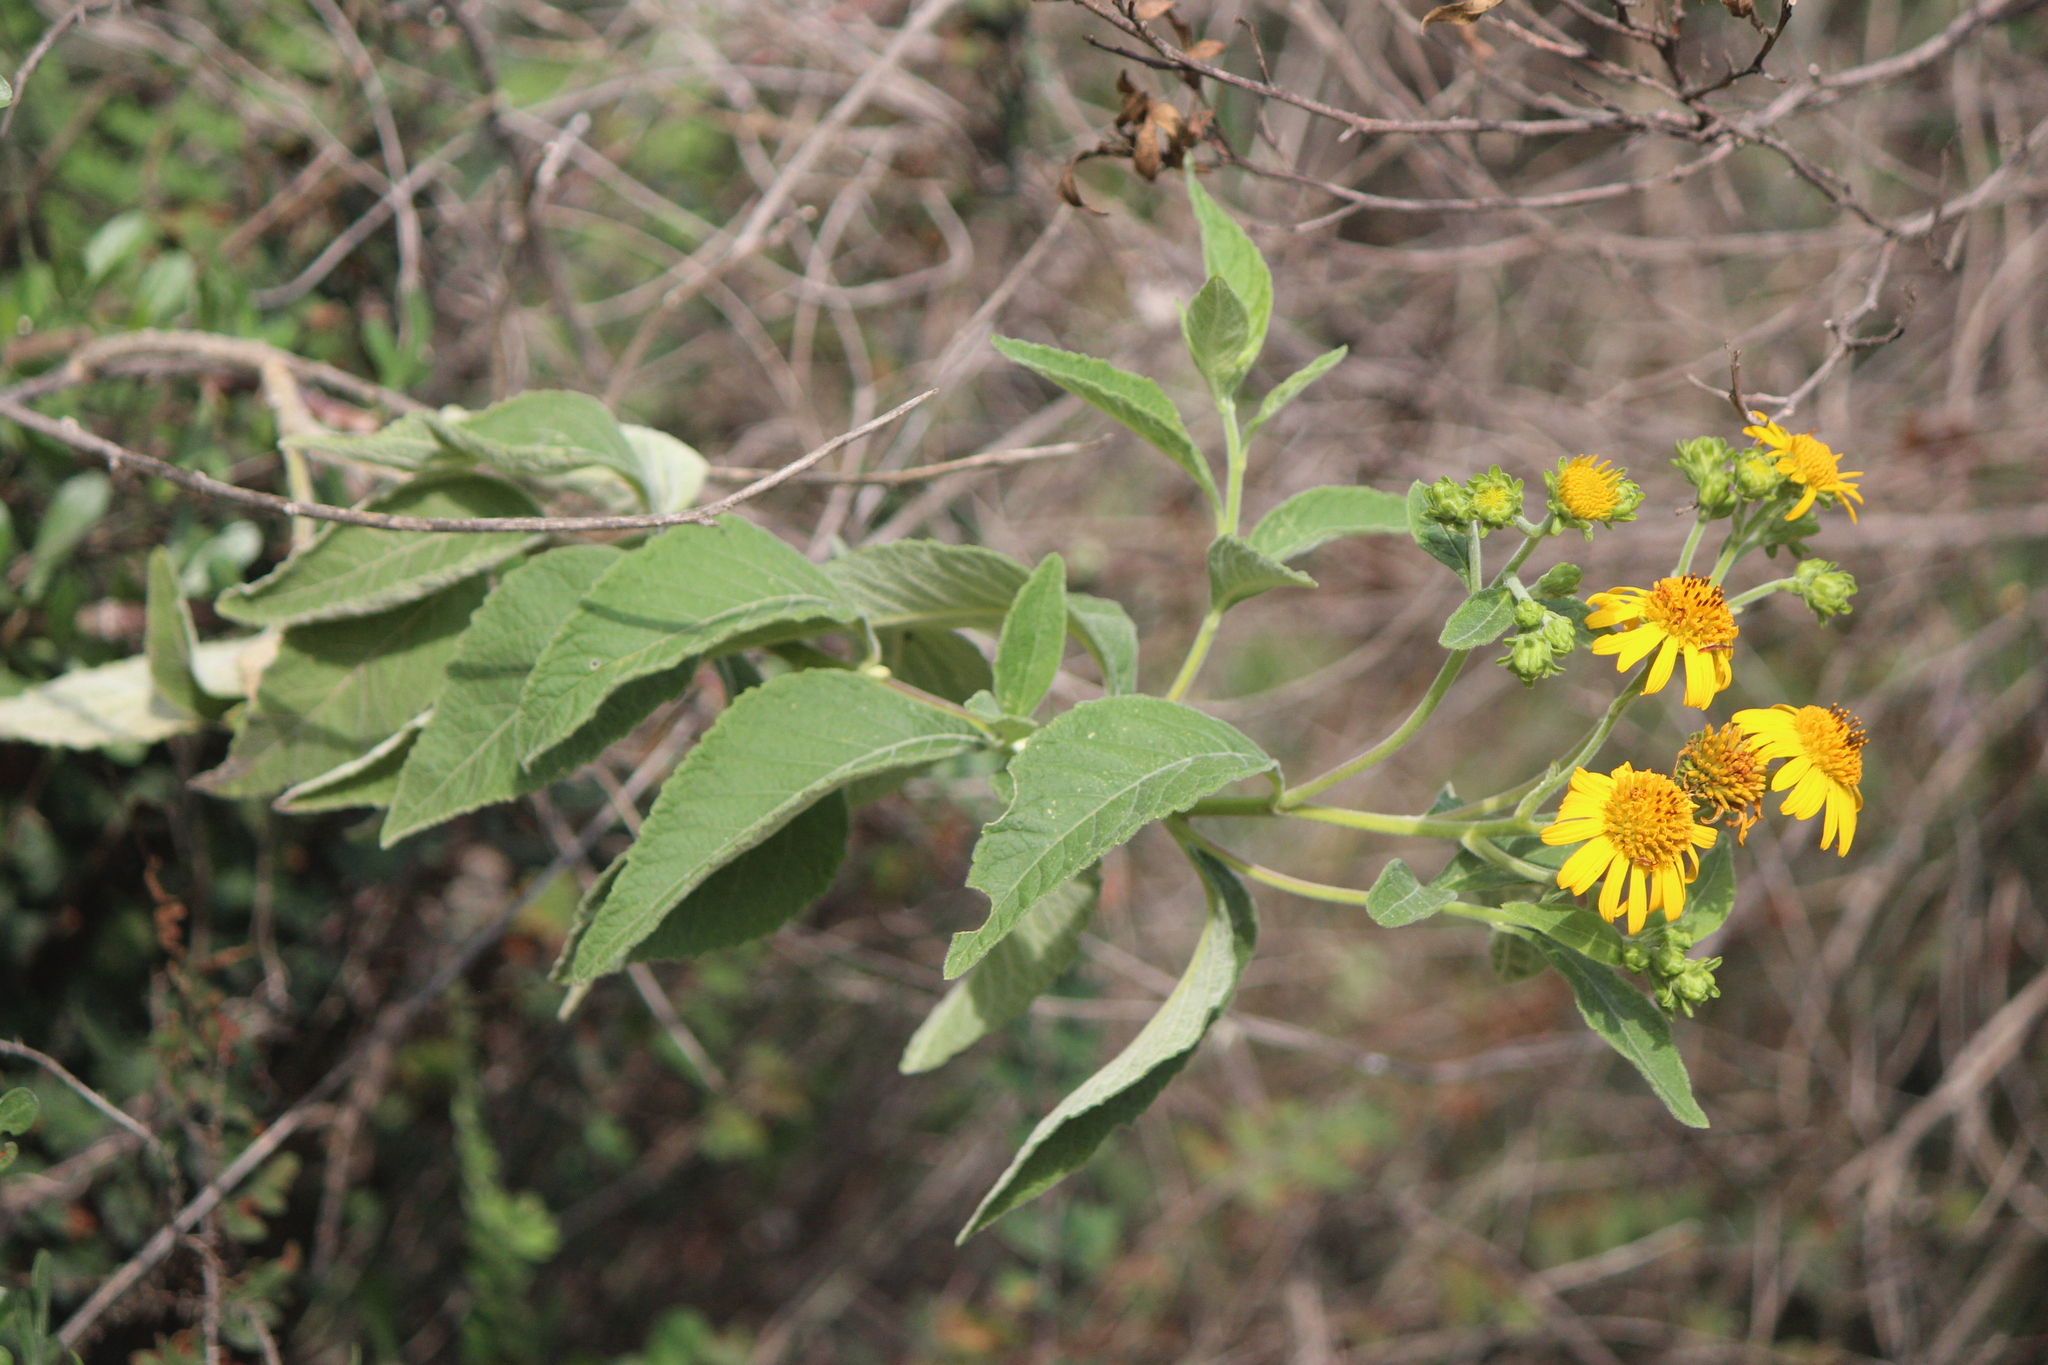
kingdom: Plantae
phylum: Tracheophyta
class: Magnoliopsida
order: Asterales
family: Asteraceae
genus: Verbesina
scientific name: Verbesina robinsonii
